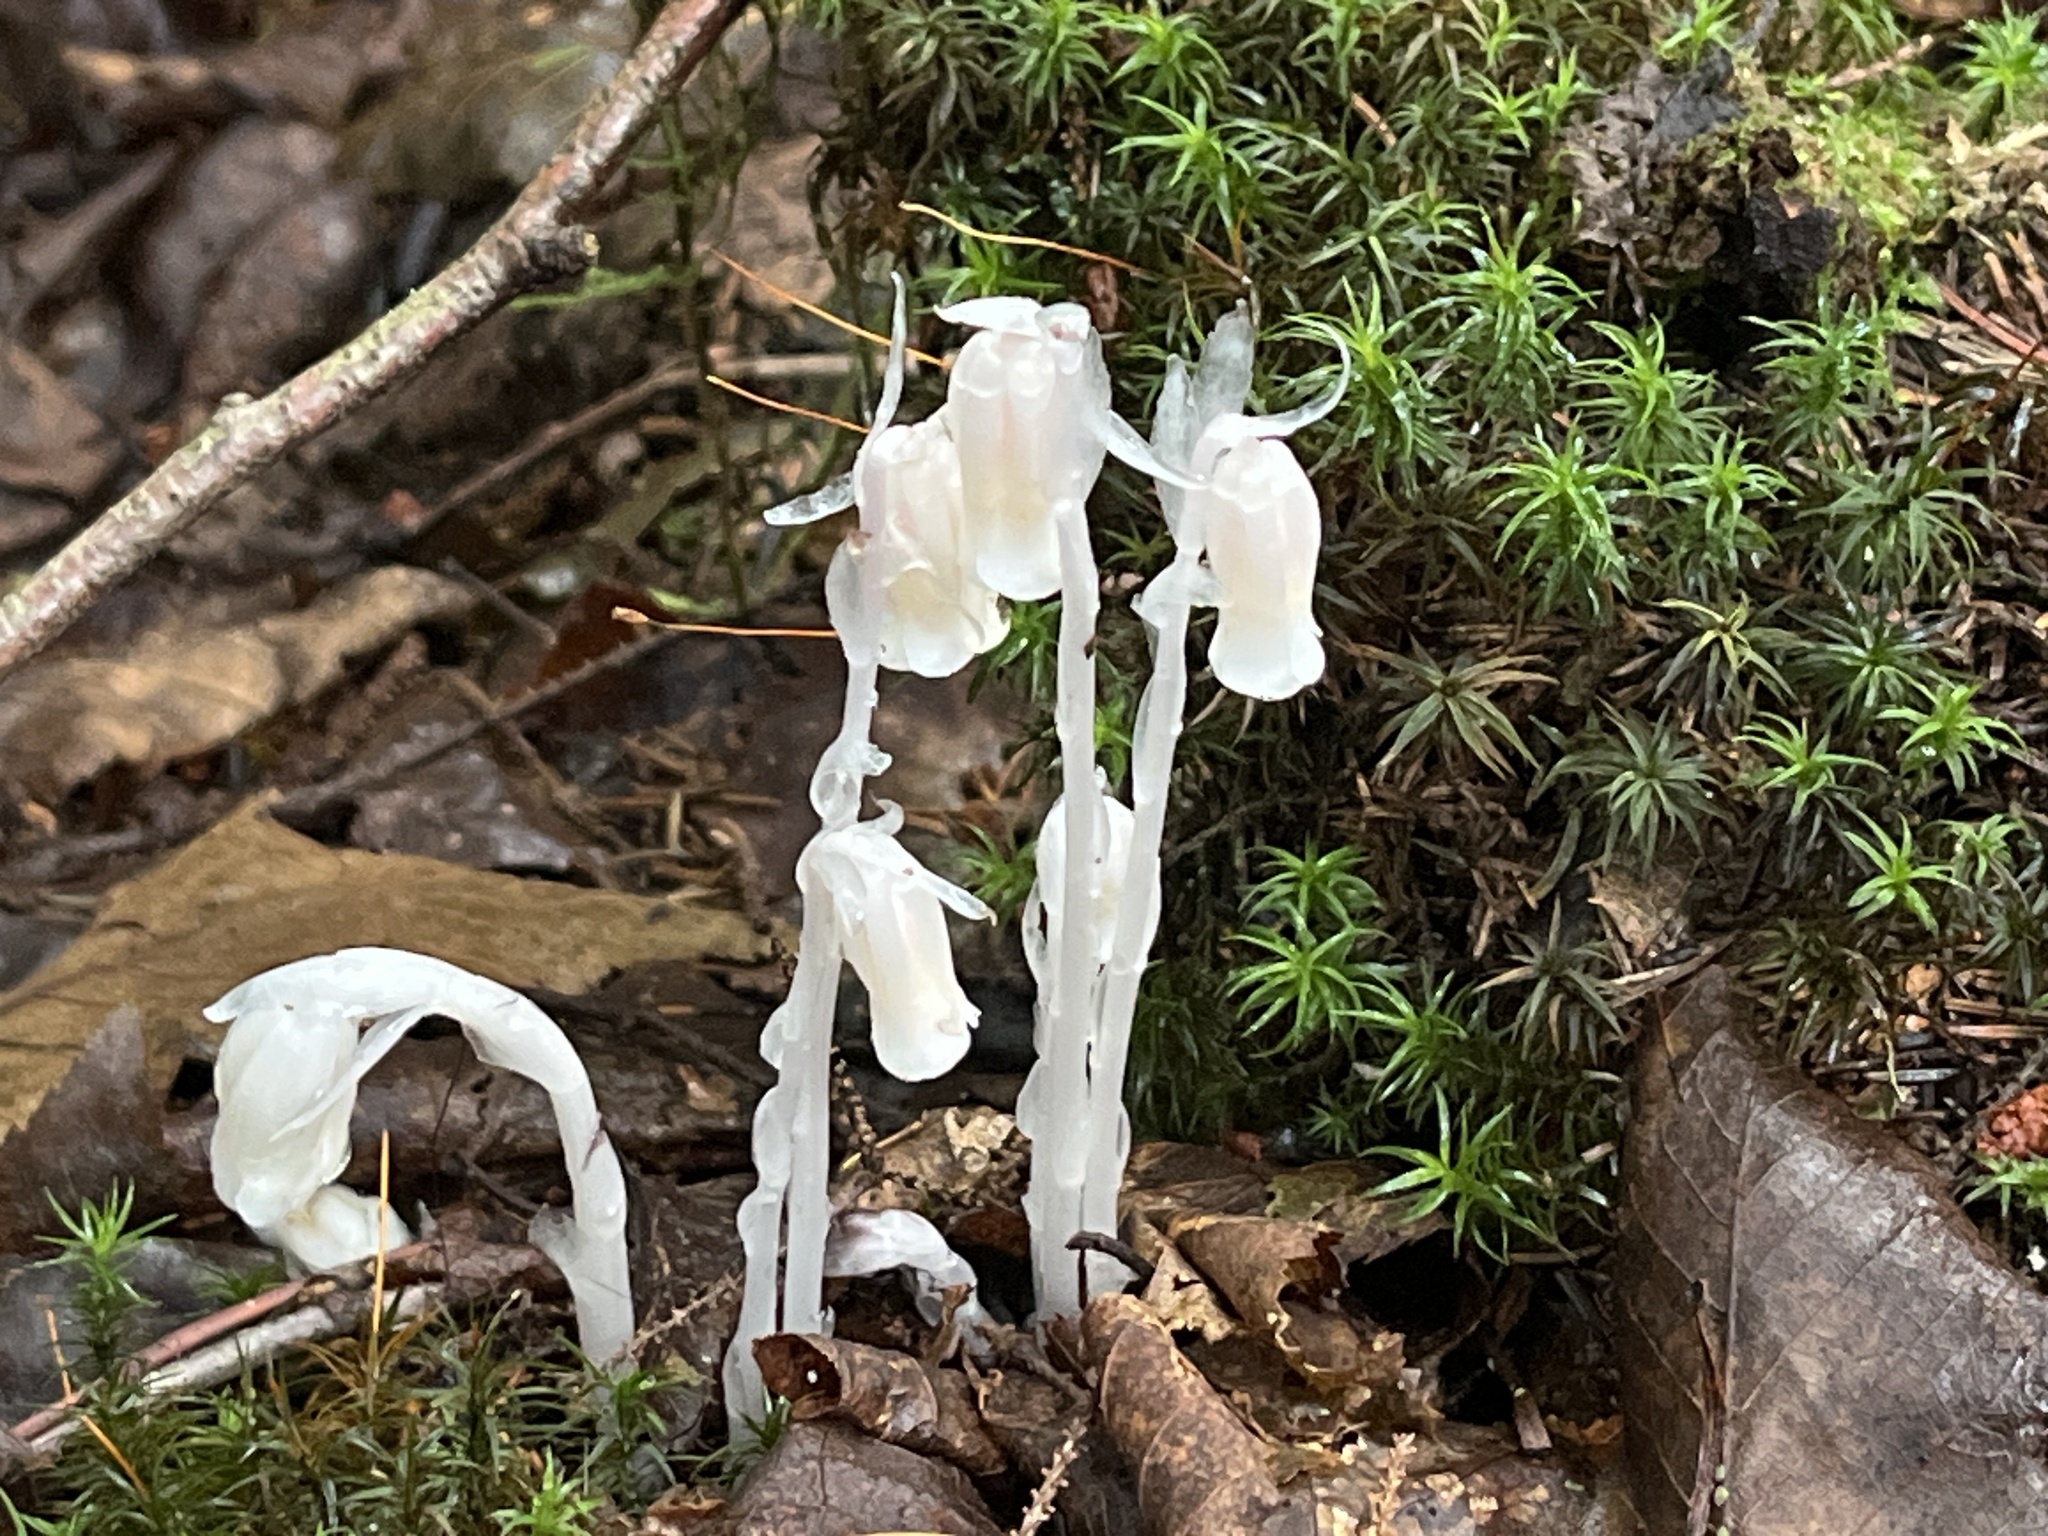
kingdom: Plantae
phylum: Tracheophyta
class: Magnoliopsida
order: Ericales
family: Ericaceae
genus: Monotropa
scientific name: Monotropa uniflora
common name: Convulsion root
